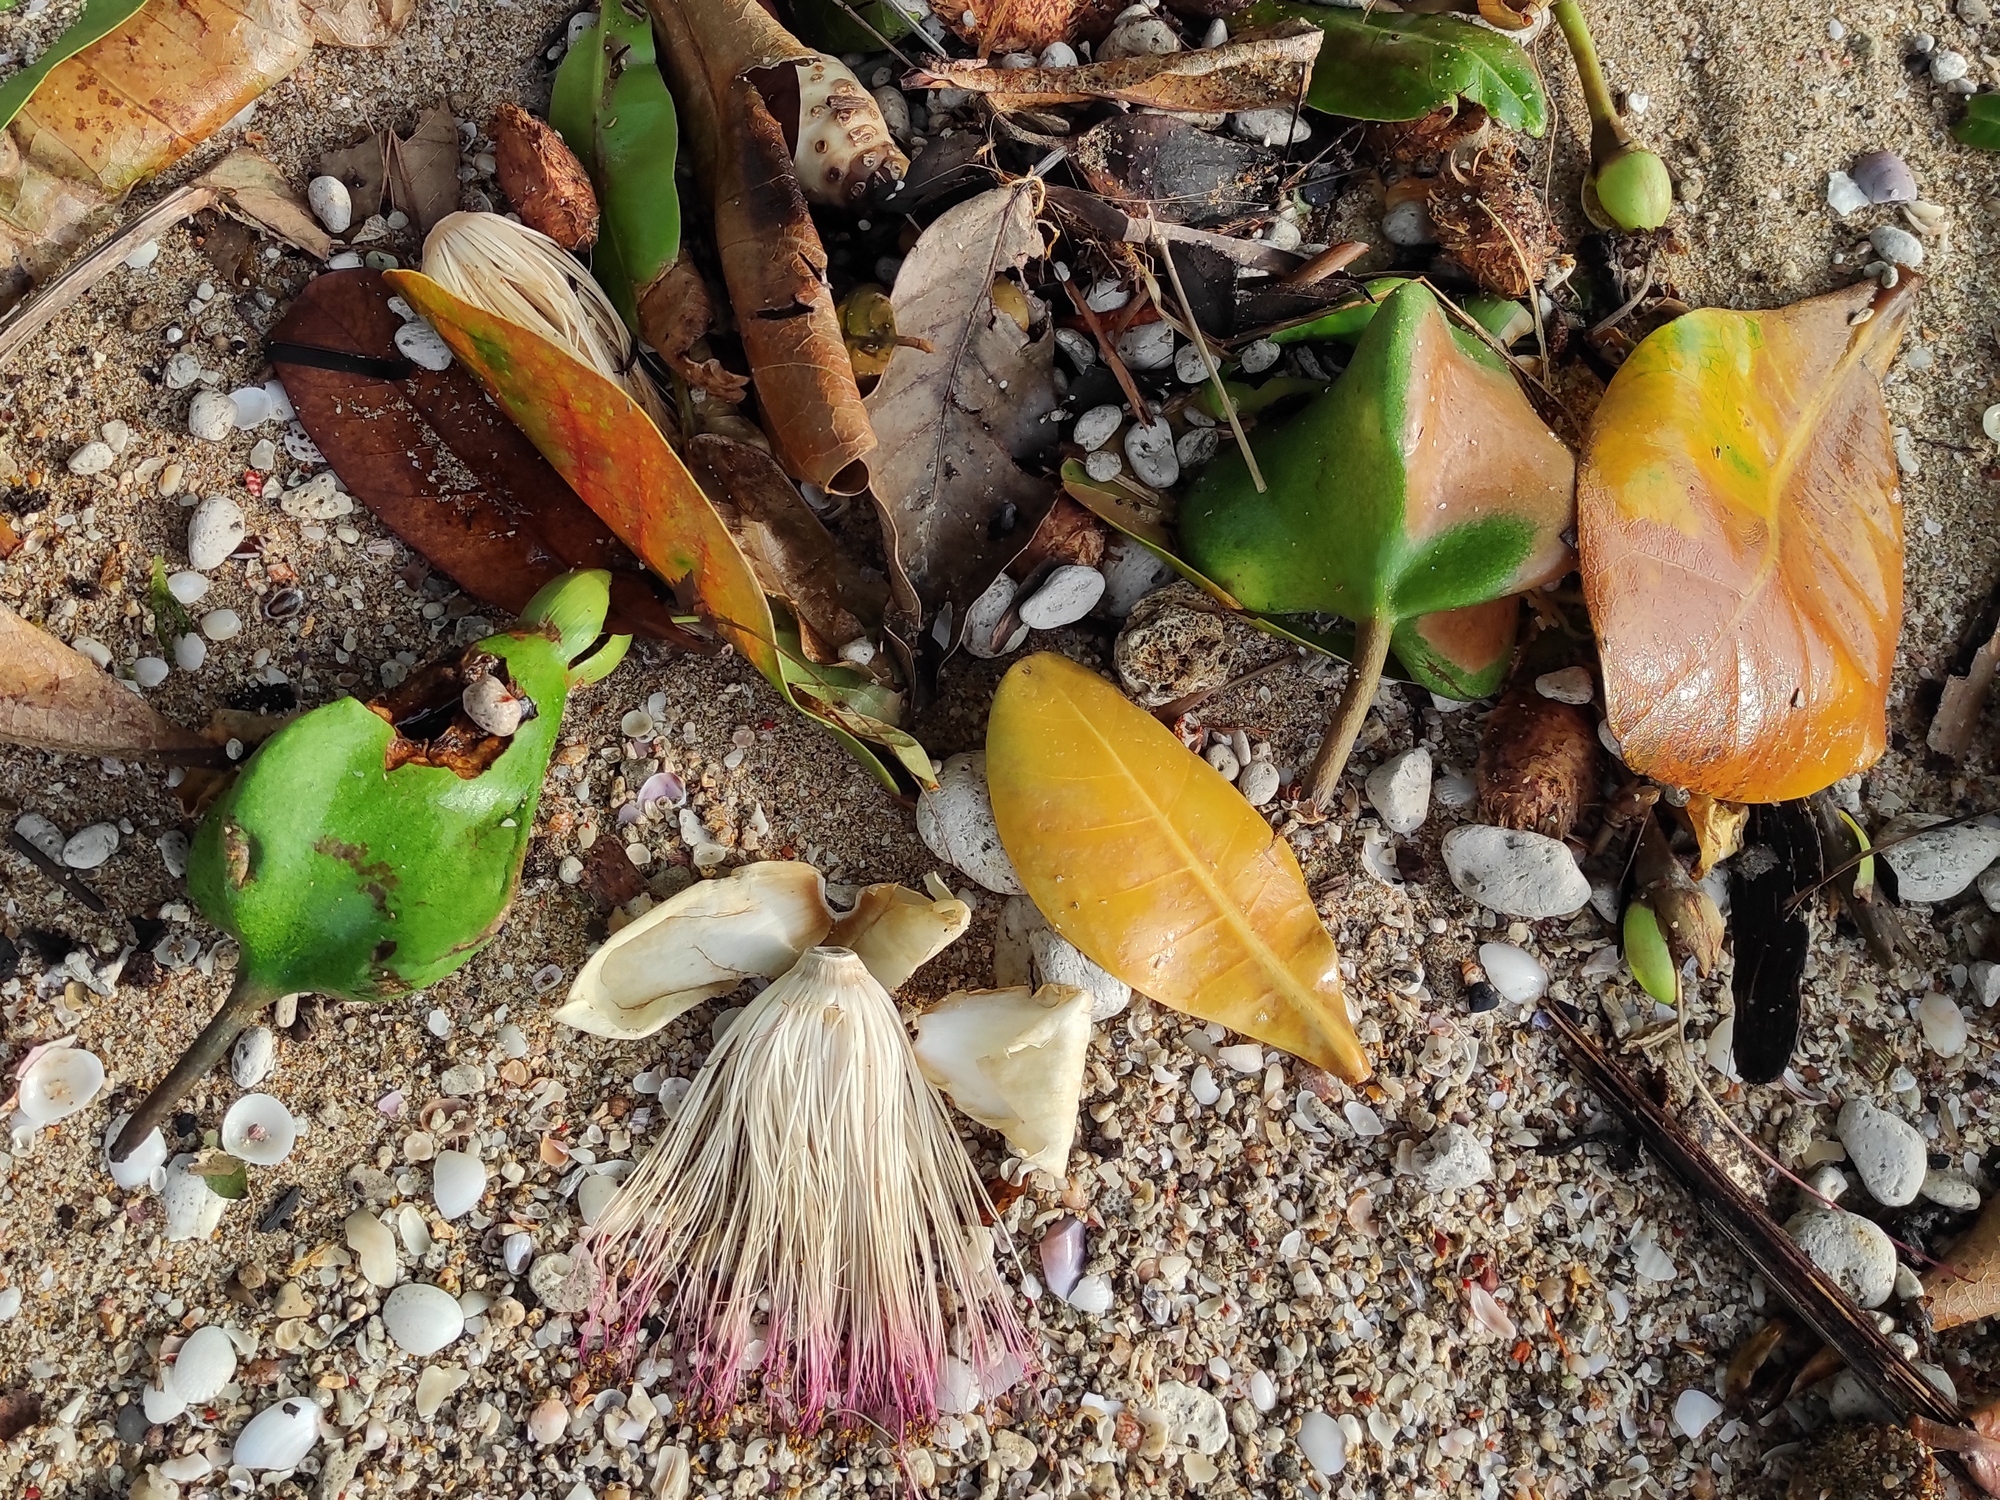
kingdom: Plantae
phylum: Tracheophyta
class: Magnoliopsida
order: Ericales
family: Lecythidaceae
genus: Barringtonia
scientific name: Barringtonia asiatica
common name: Mango-pine
